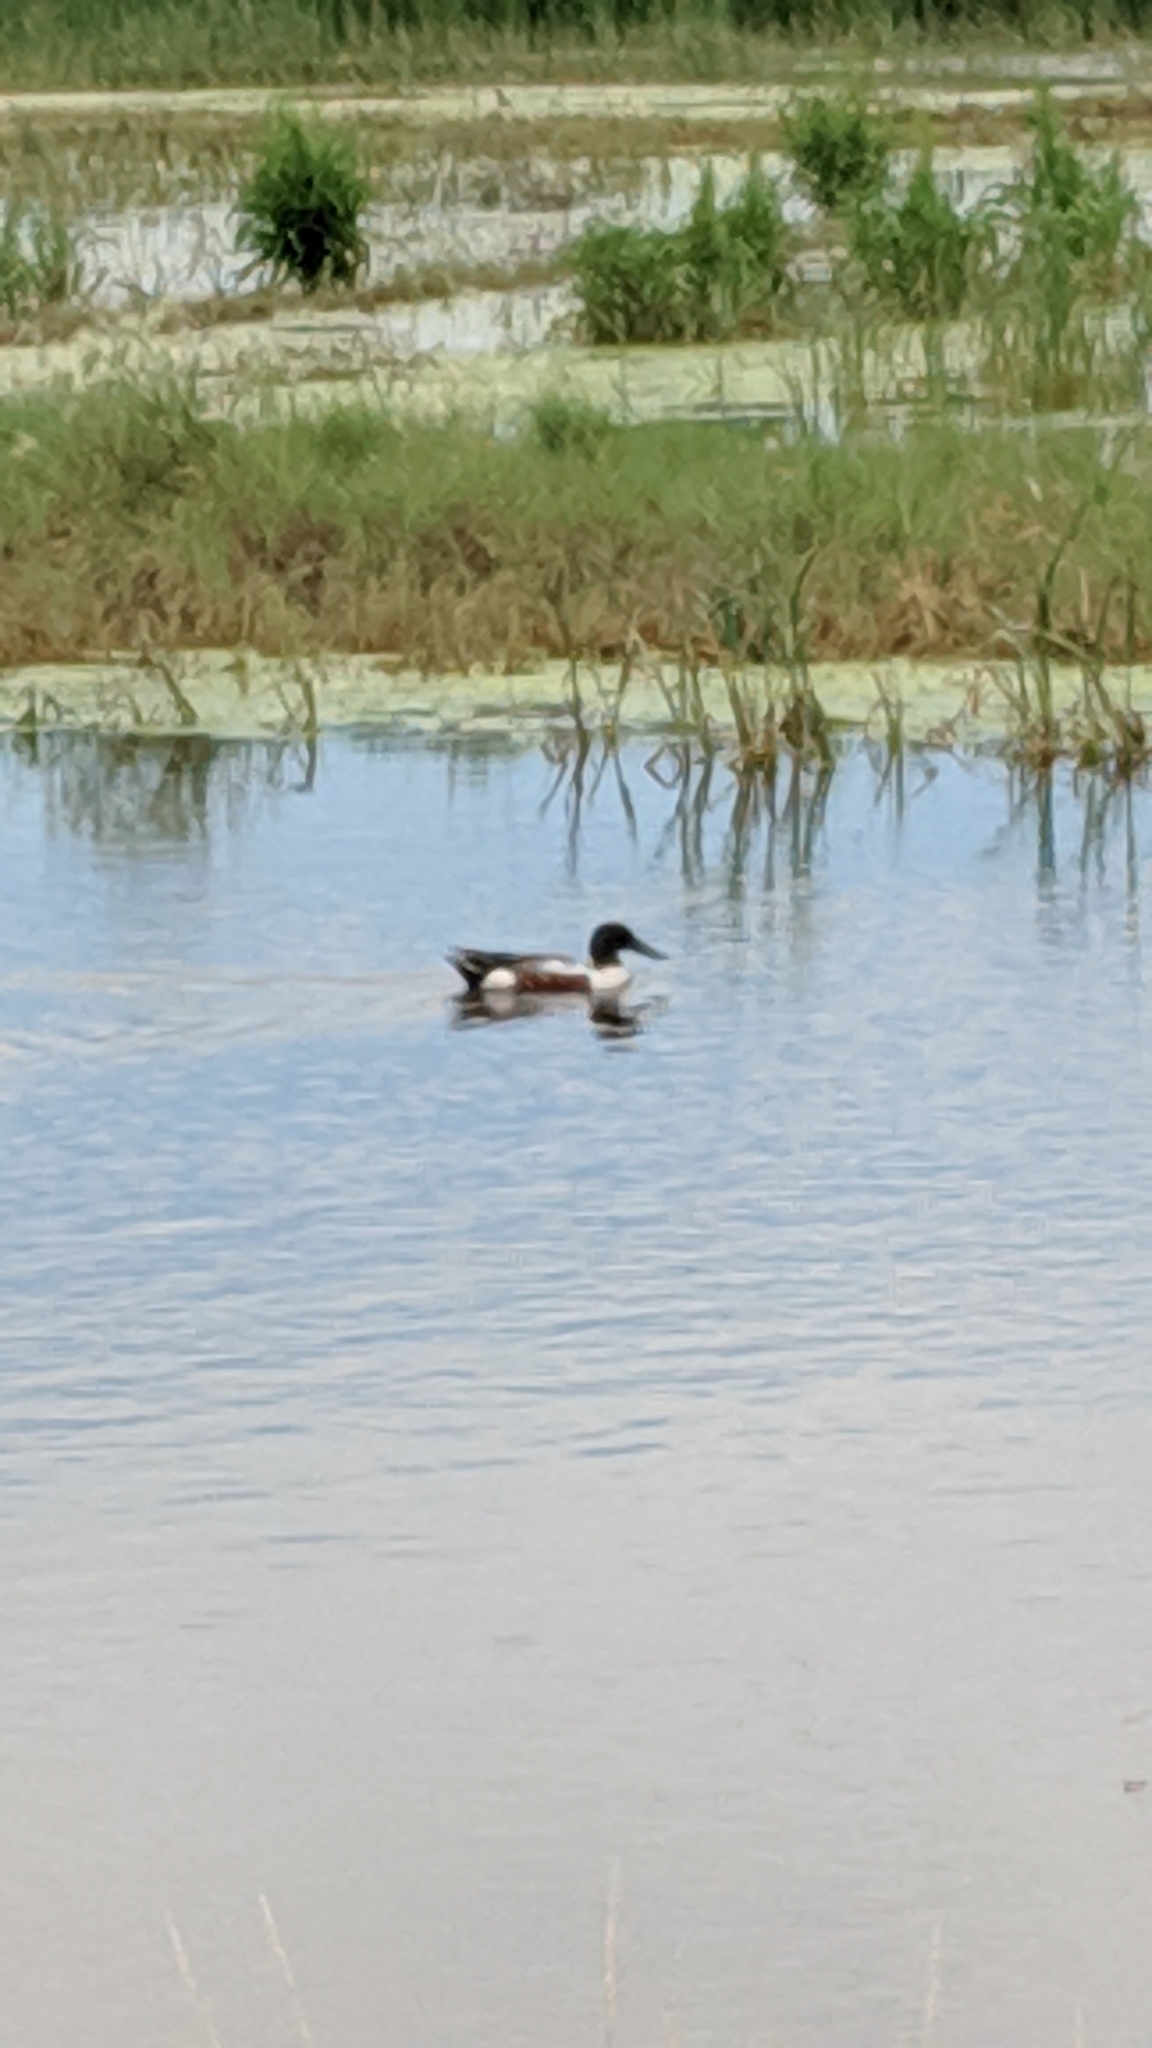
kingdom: Animalia
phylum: Chordata
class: Aves
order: Anseriformes
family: Anatidae
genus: Spatula
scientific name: Spatula clypeata
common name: Northern shoveler
